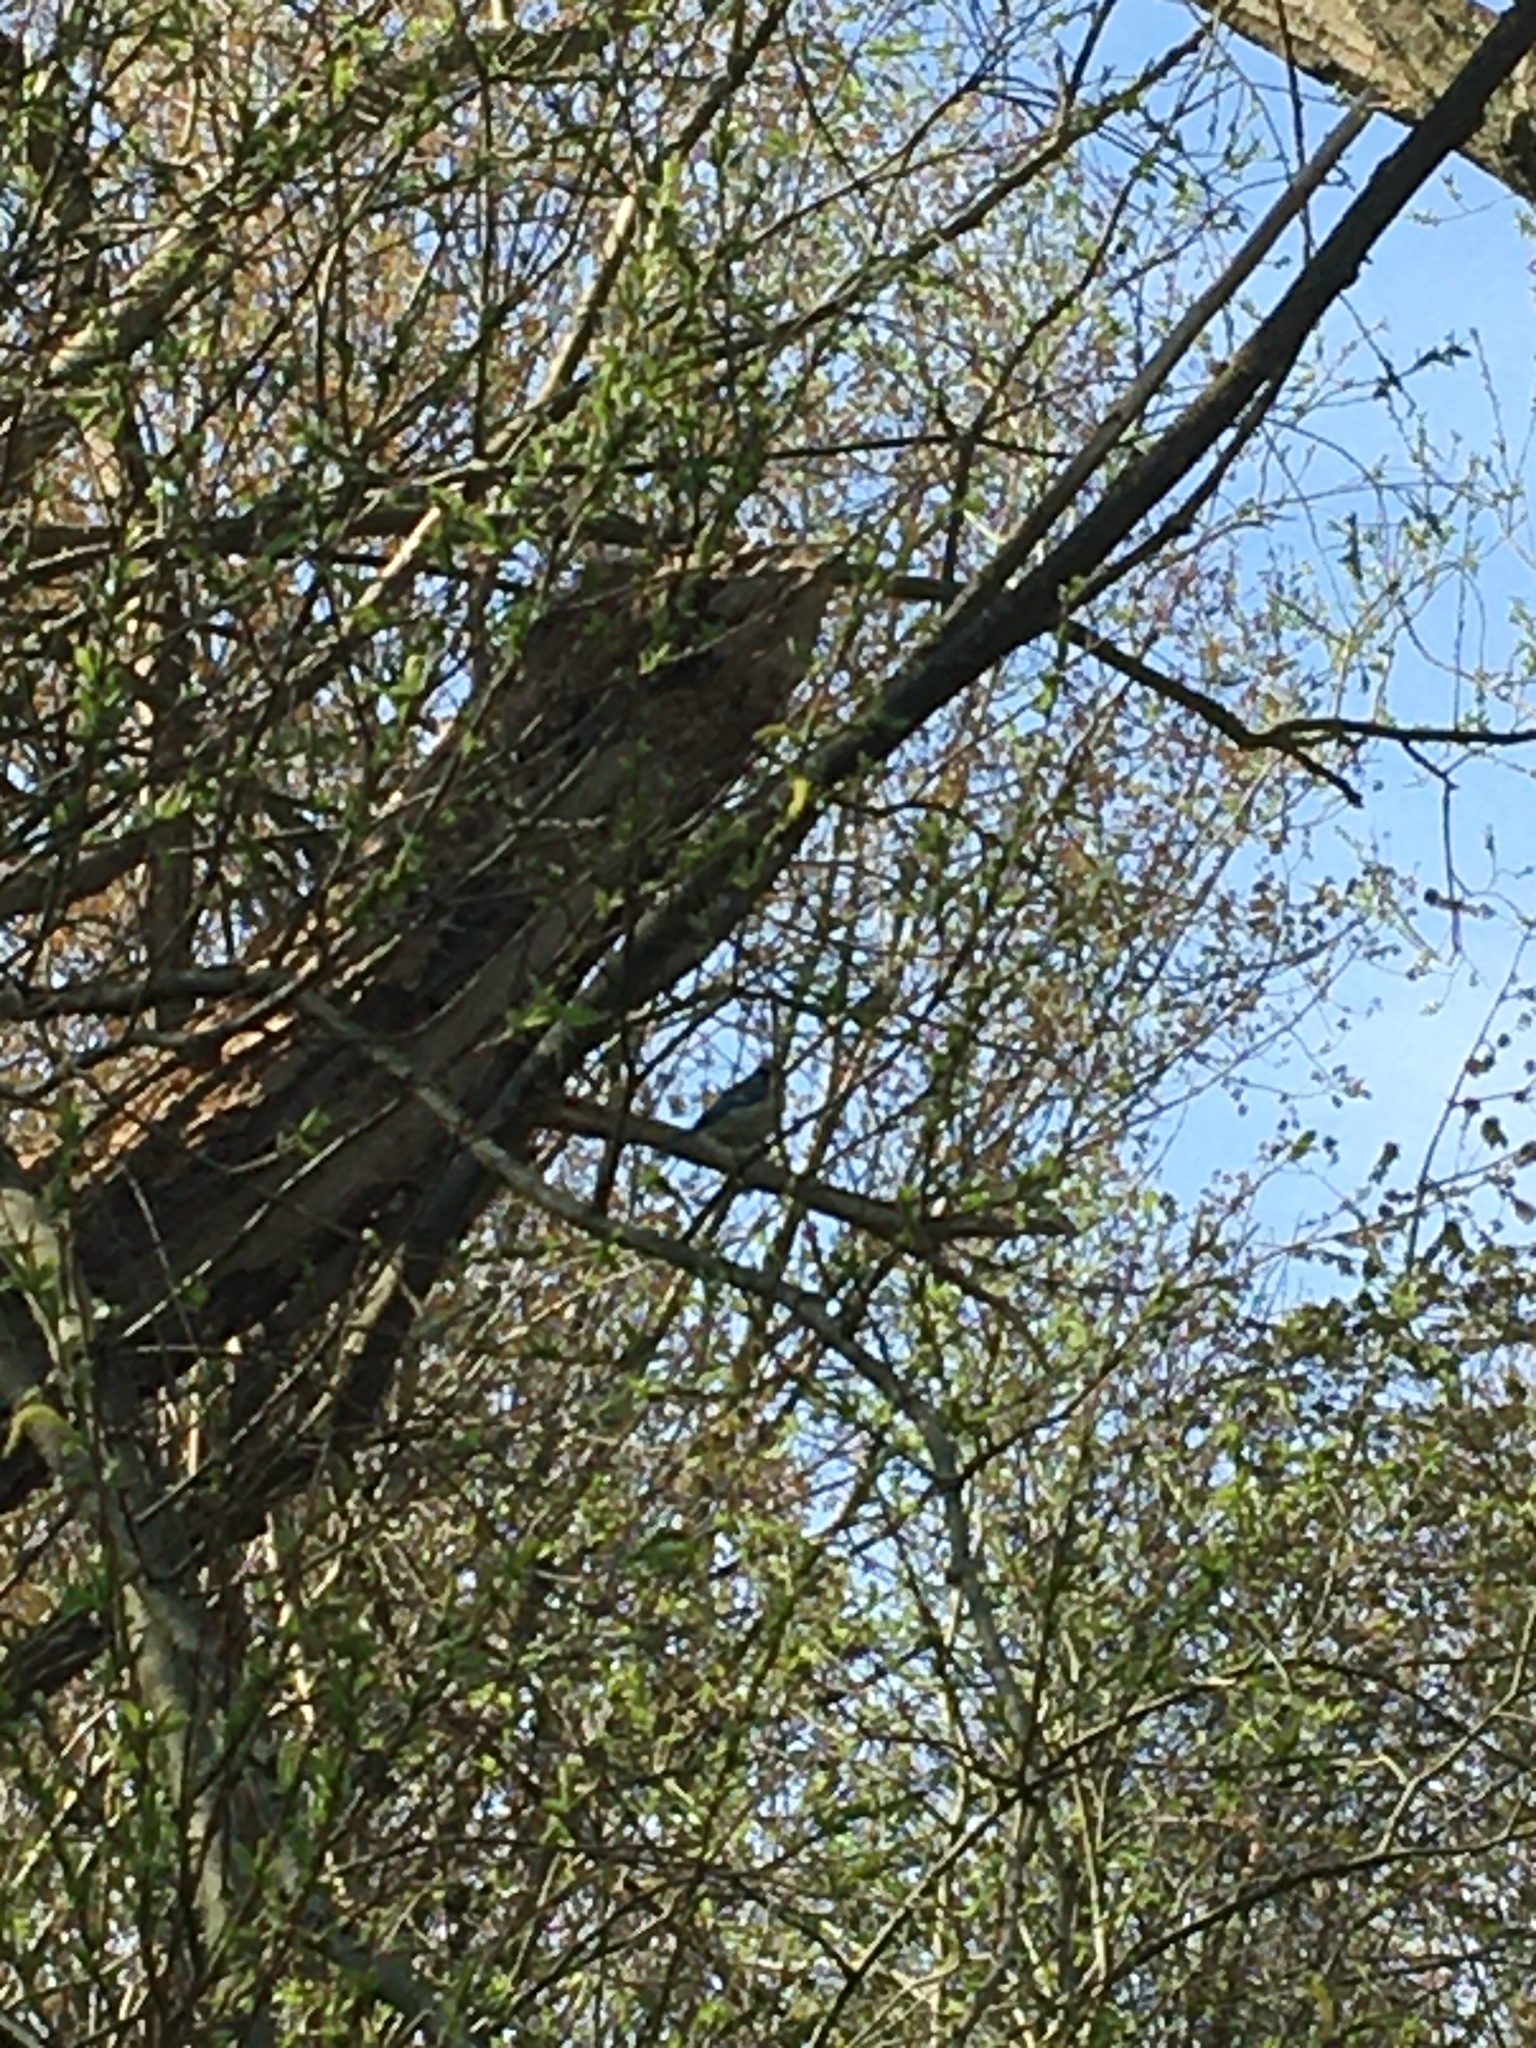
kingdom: Animalia
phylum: Chordata
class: Aves
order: Passeriformes
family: Paridae
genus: Cyanistes
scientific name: Cyanistes caeruleus
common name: Eurasian blue tit
